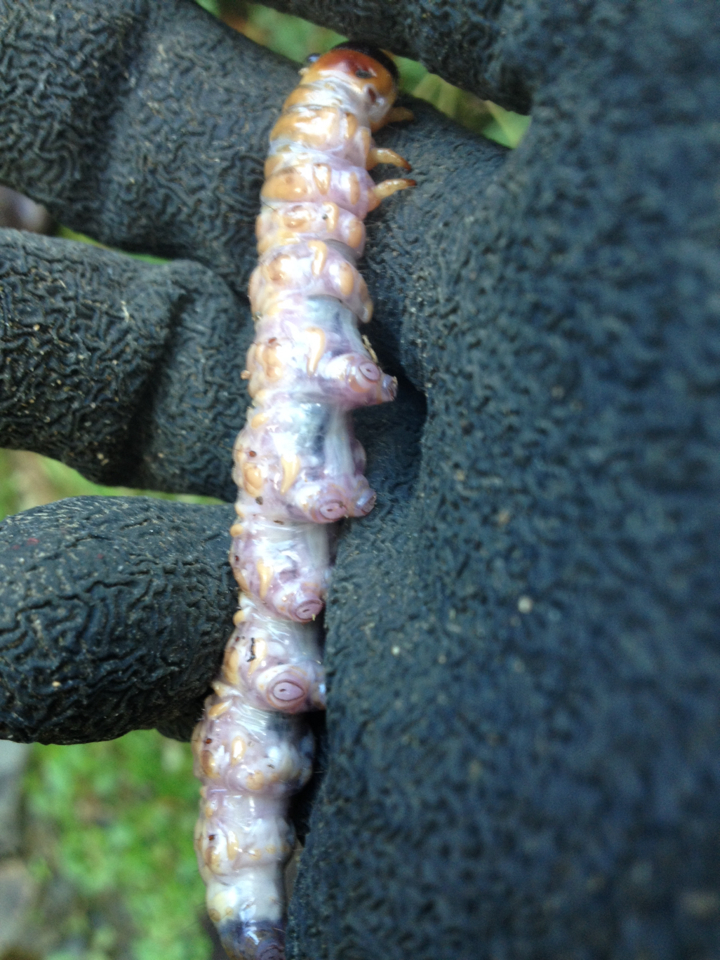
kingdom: Animalia
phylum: Arthropoda
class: Insecta
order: Lepidoptera
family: Hepialidae
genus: Aenetus
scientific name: Aenetus virescens
